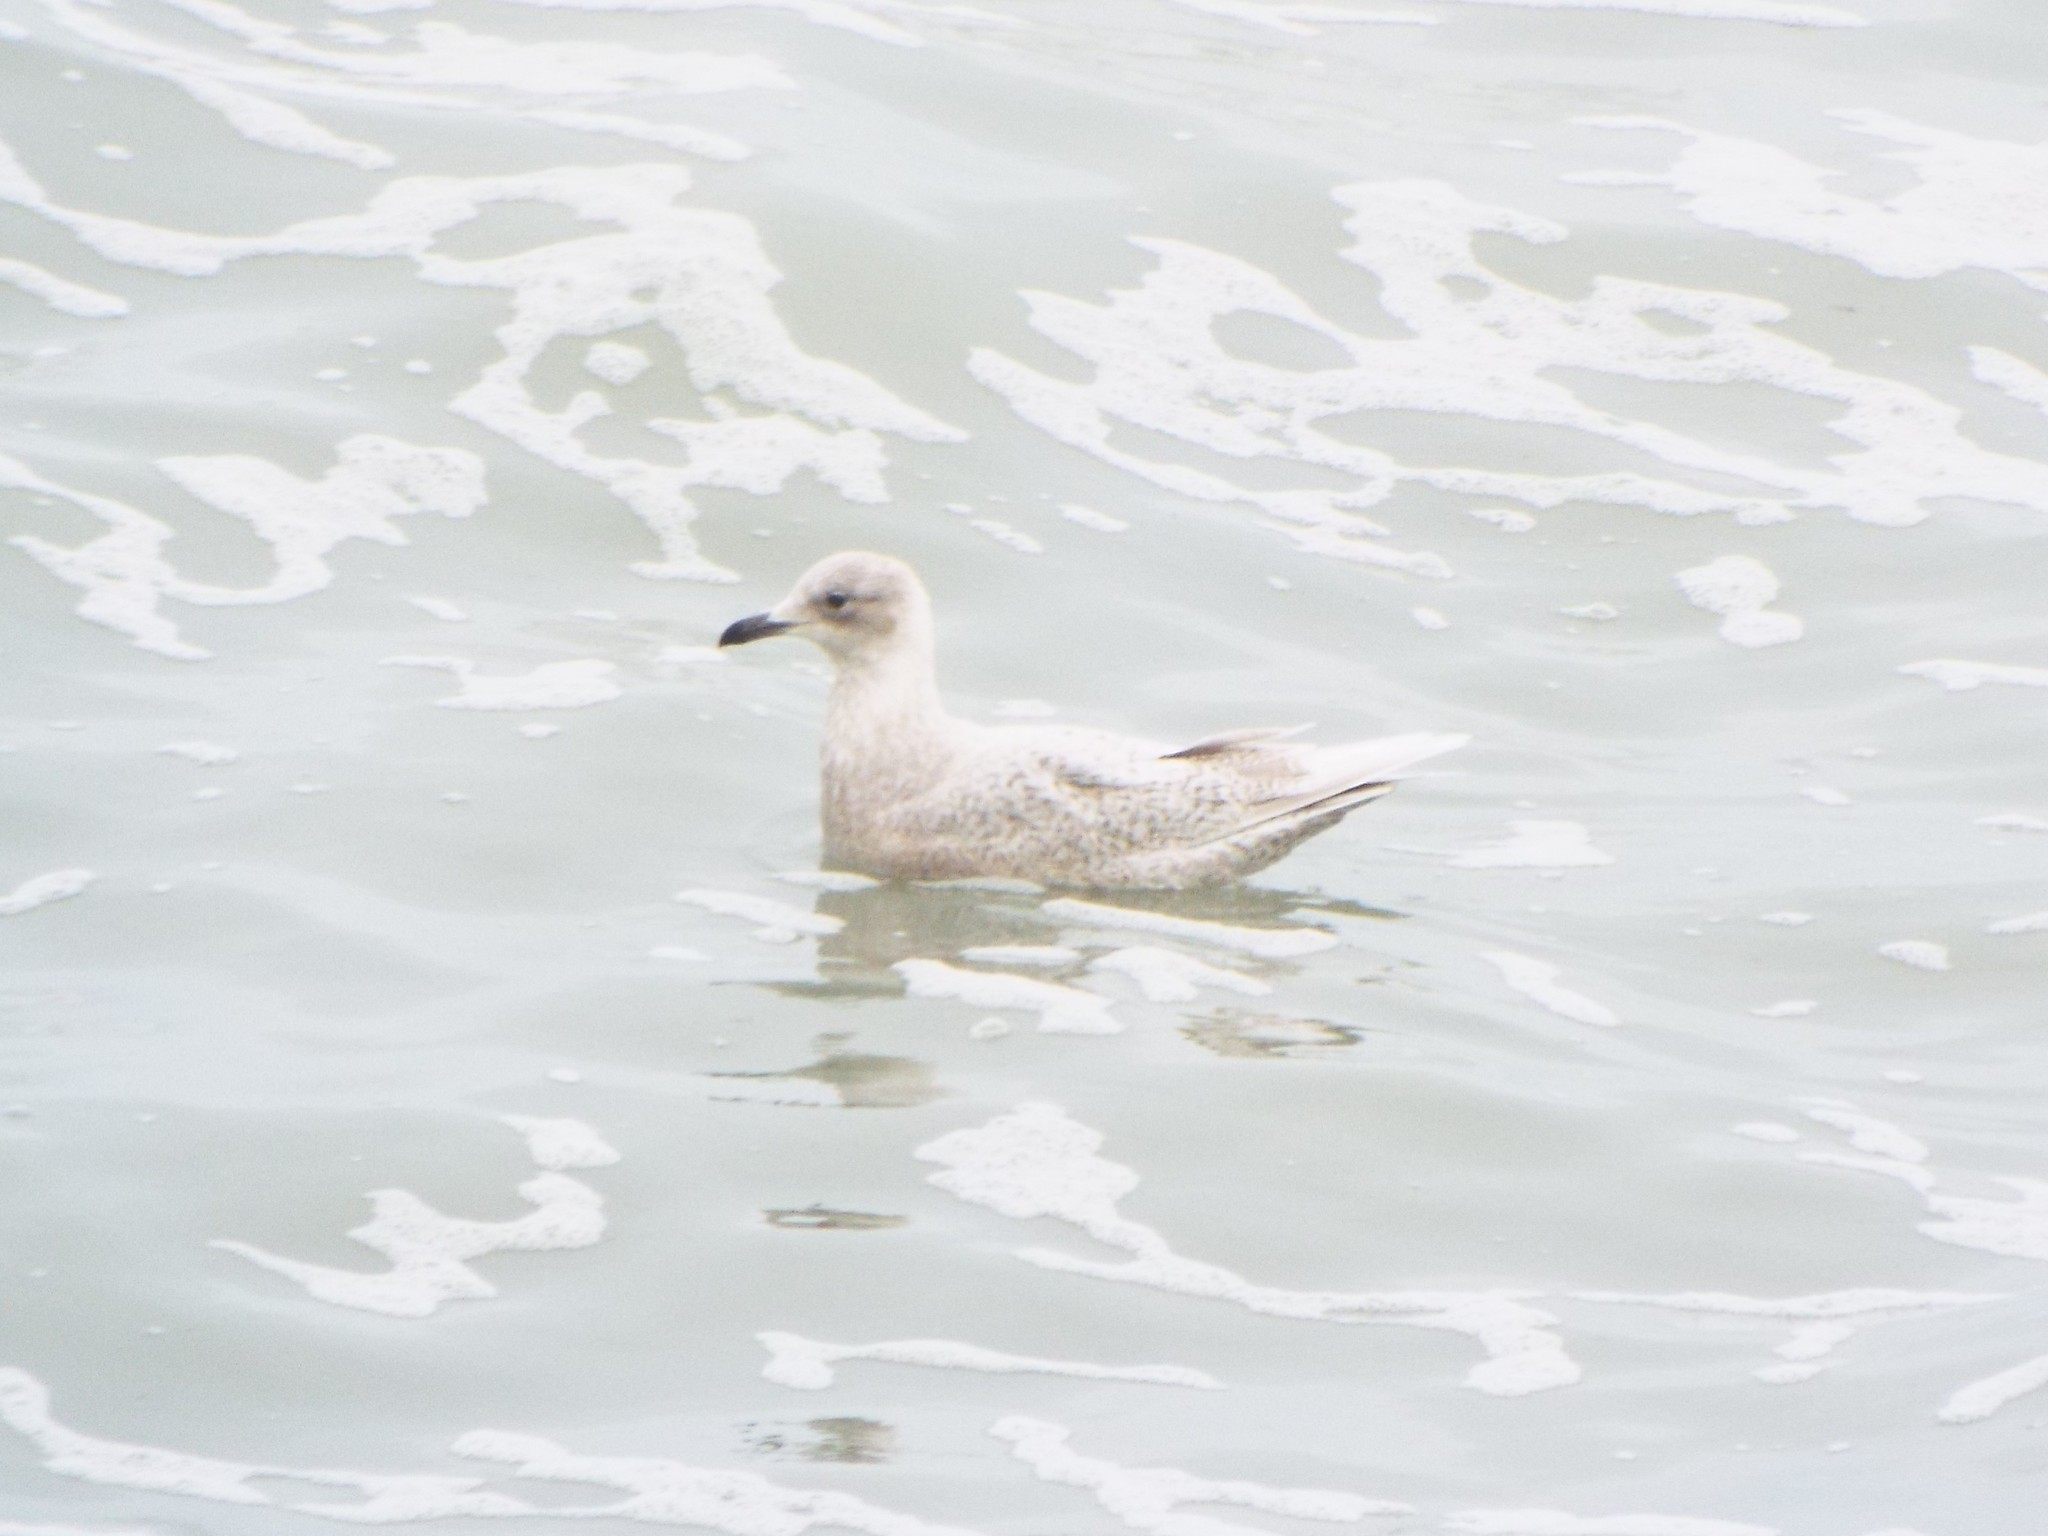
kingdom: Animalia
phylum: Chordata
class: Aves
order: Charadriiformes
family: Laridae
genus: Larus
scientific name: Larus glaucoides
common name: Iceland gull
